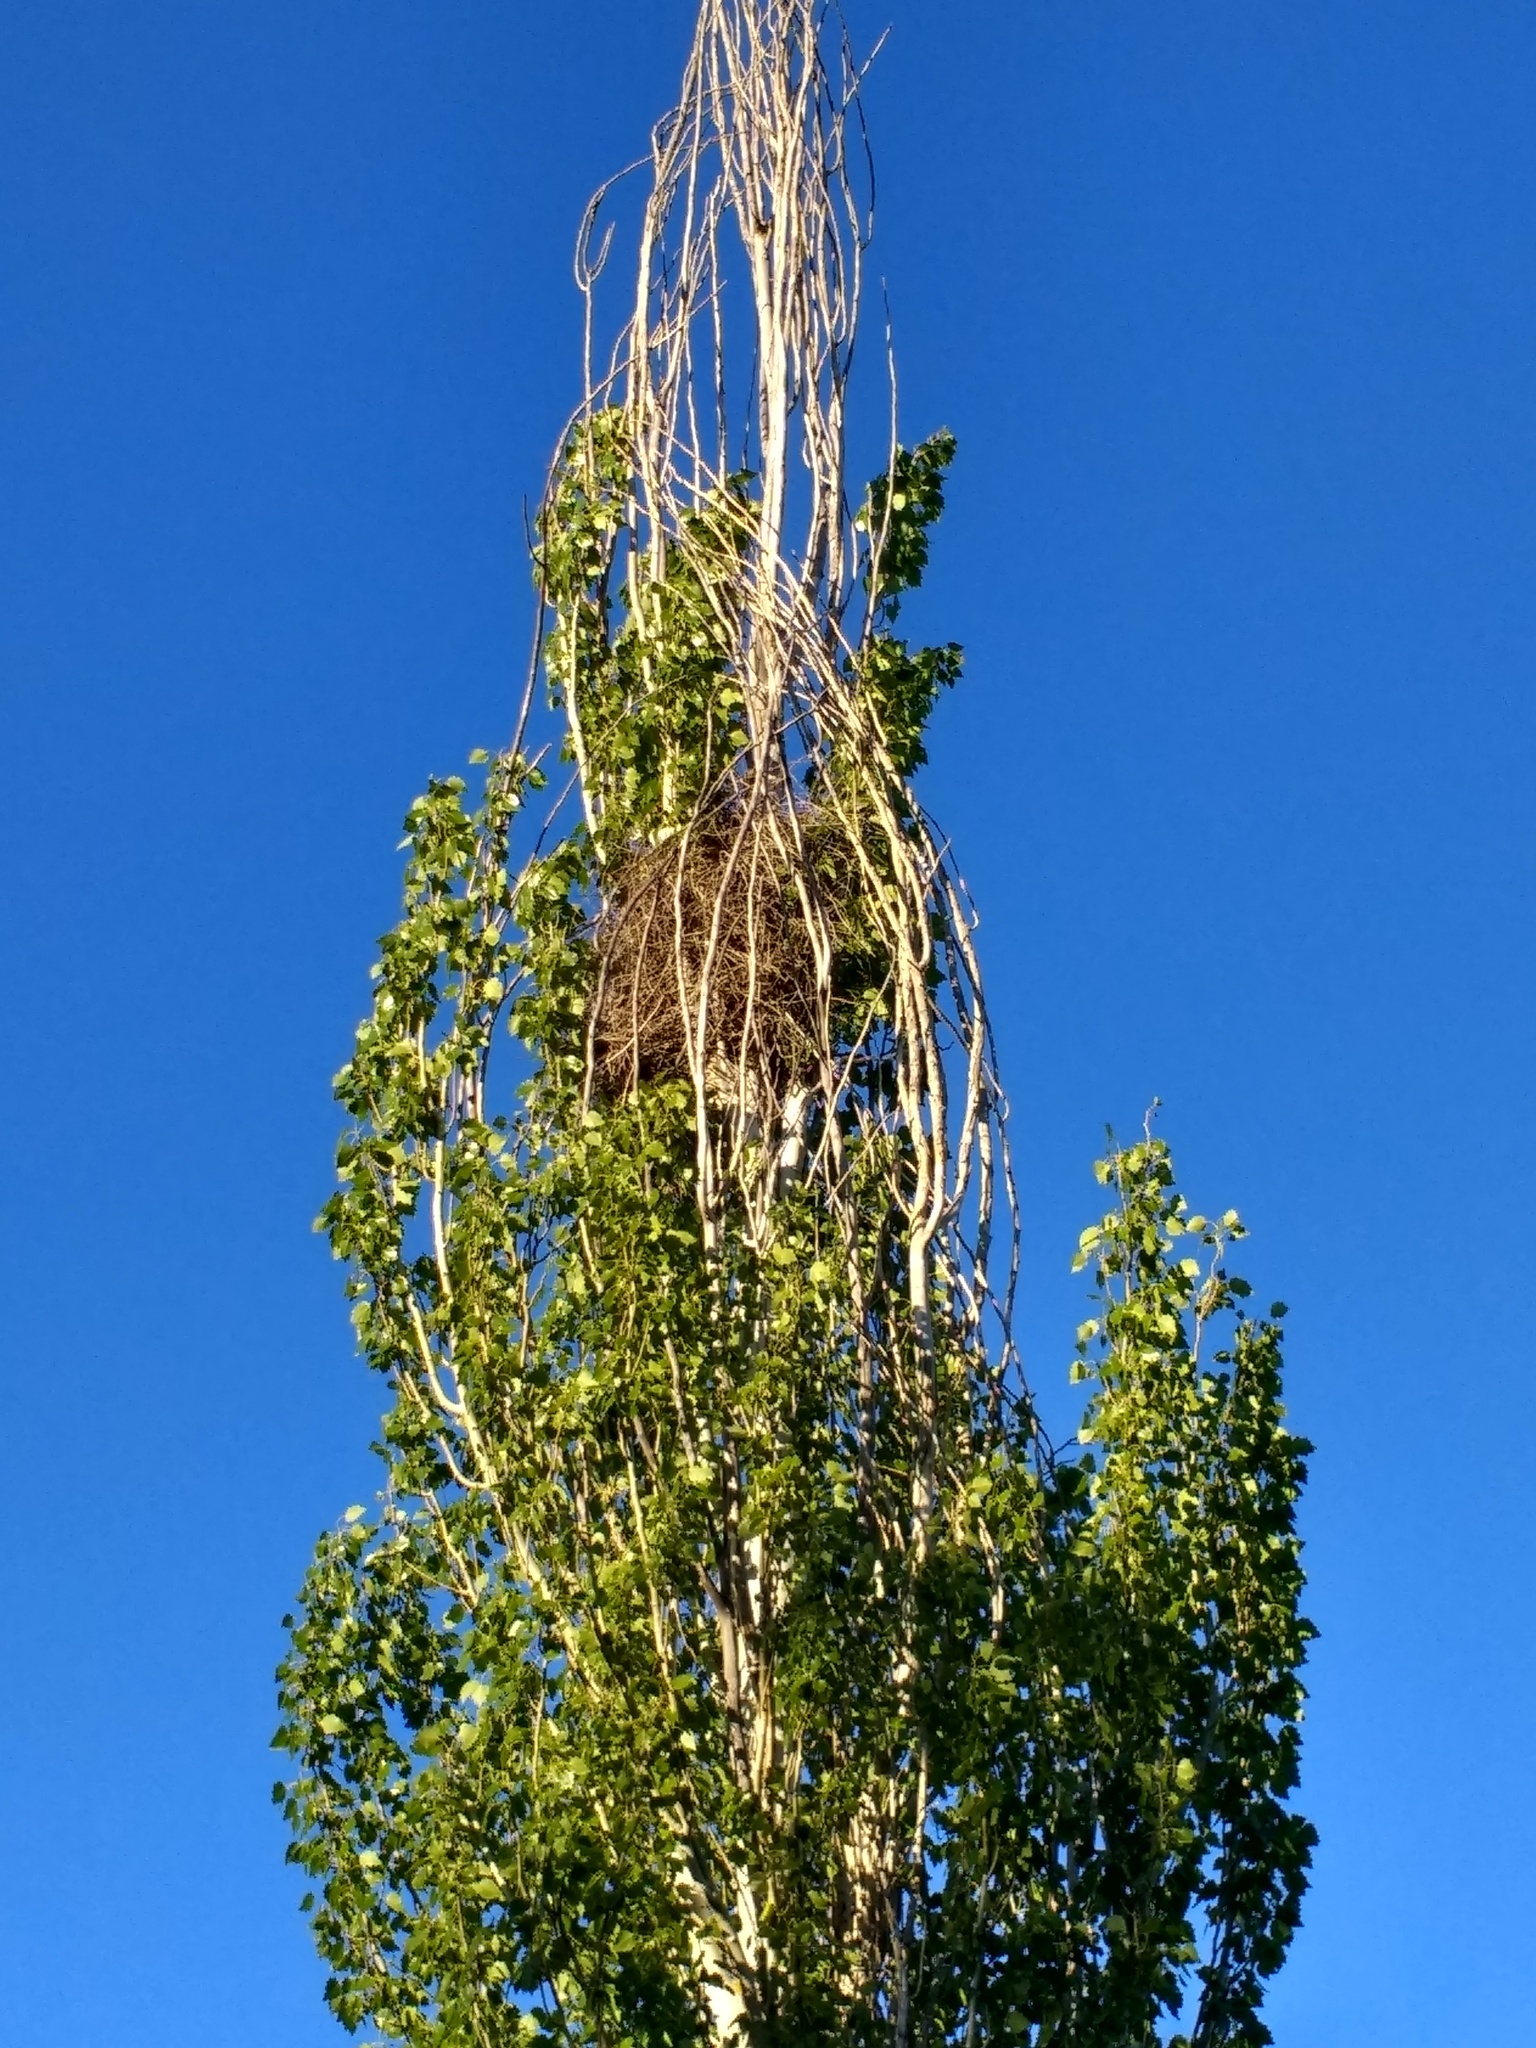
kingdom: Animalia
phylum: Chordata
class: Aves
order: Psittaciformes
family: Psittacidae
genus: Myiopsitta
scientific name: Myiopsitta monachus
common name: Monk parakeet
